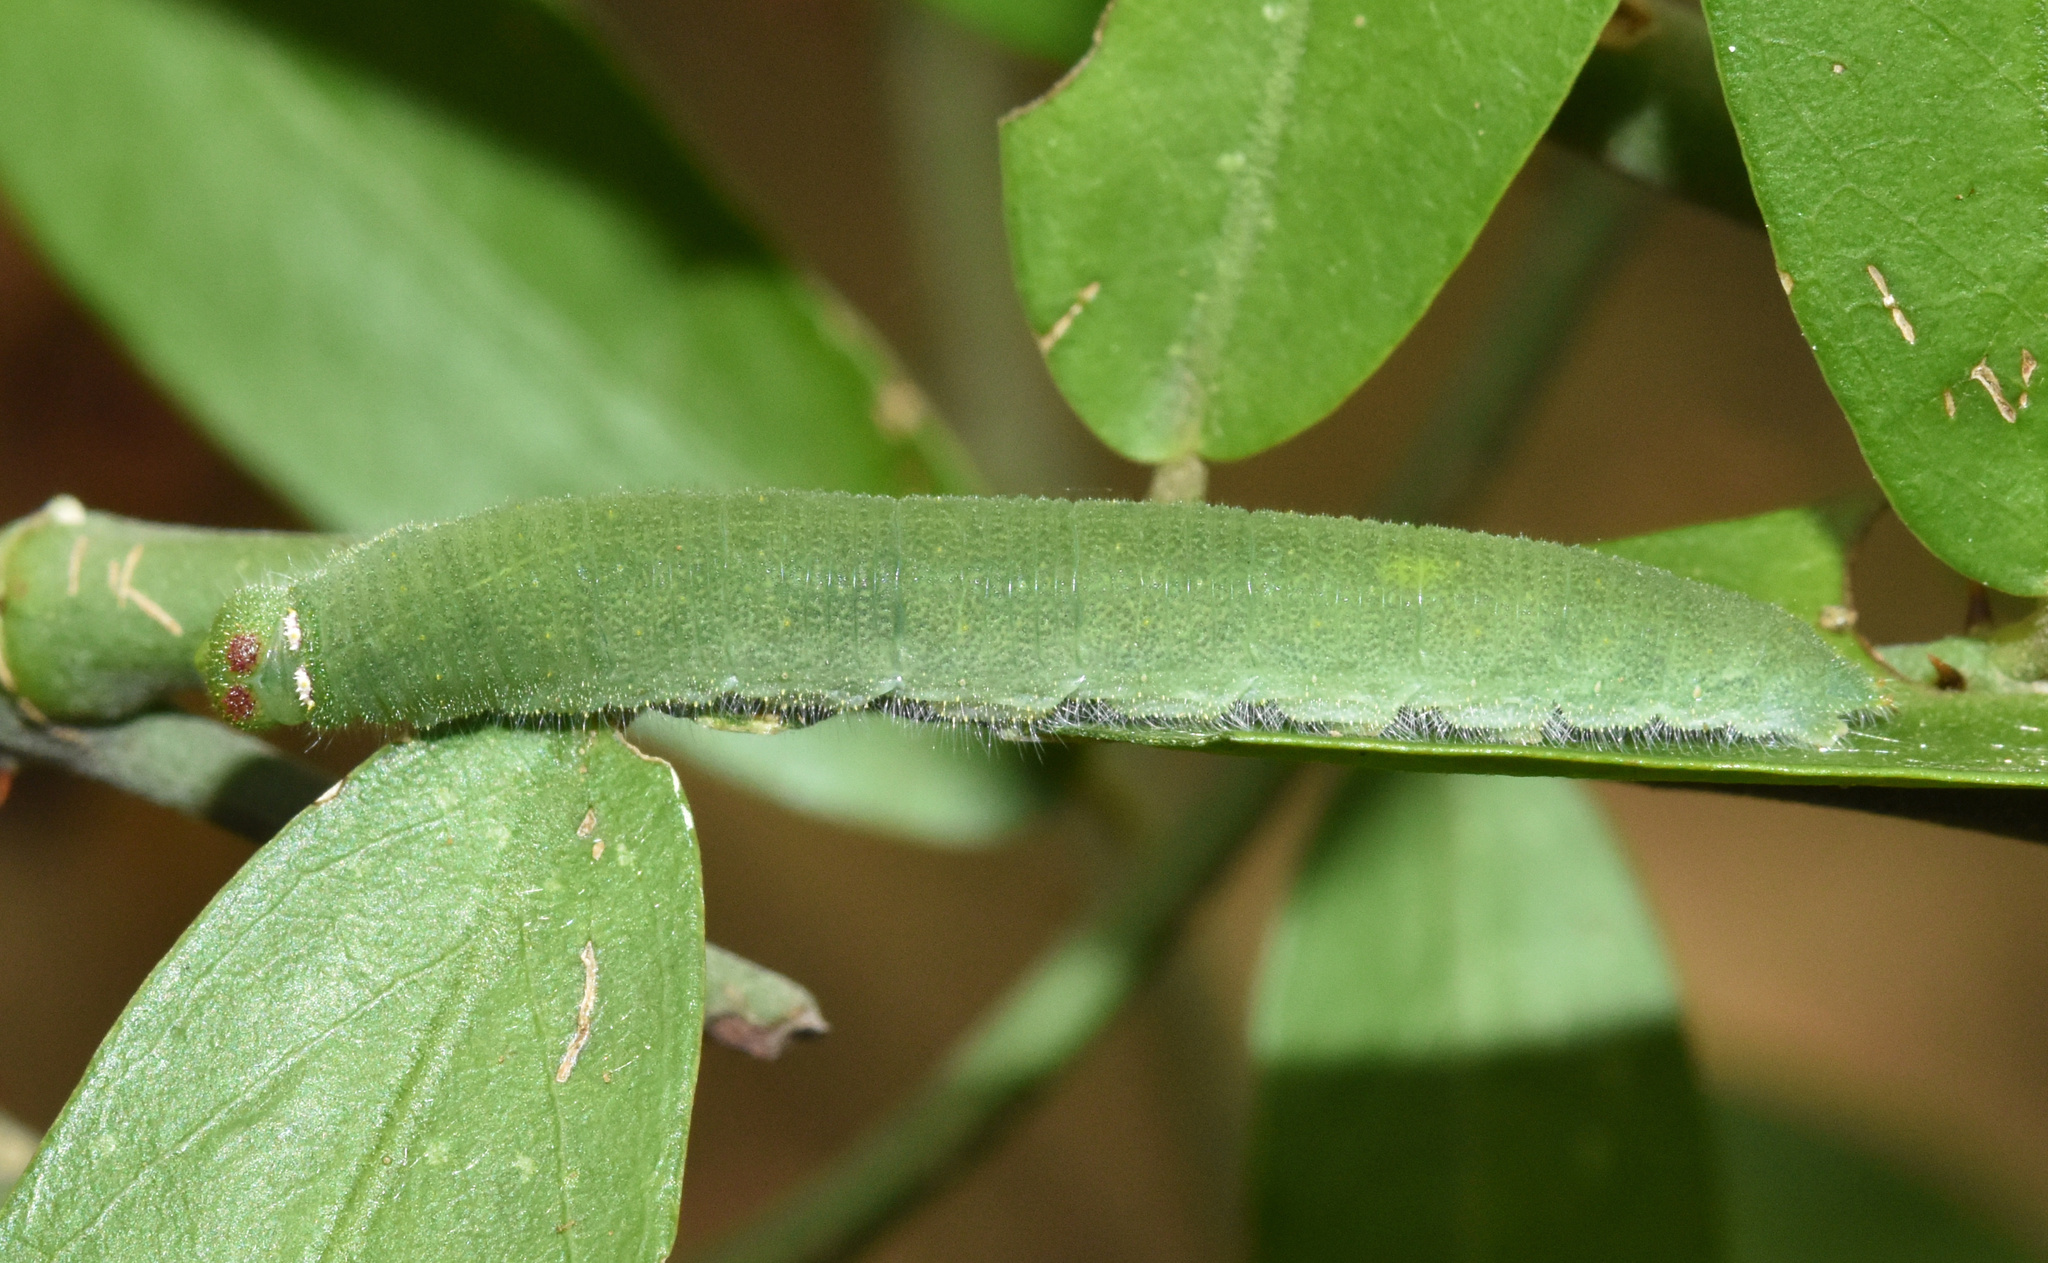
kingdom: Animalia
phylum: Arthropoda
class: Insecta
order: Lepidoptera
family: Pieridae
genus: Belenois
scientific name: Belenois gidica
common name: Pointed caper white
